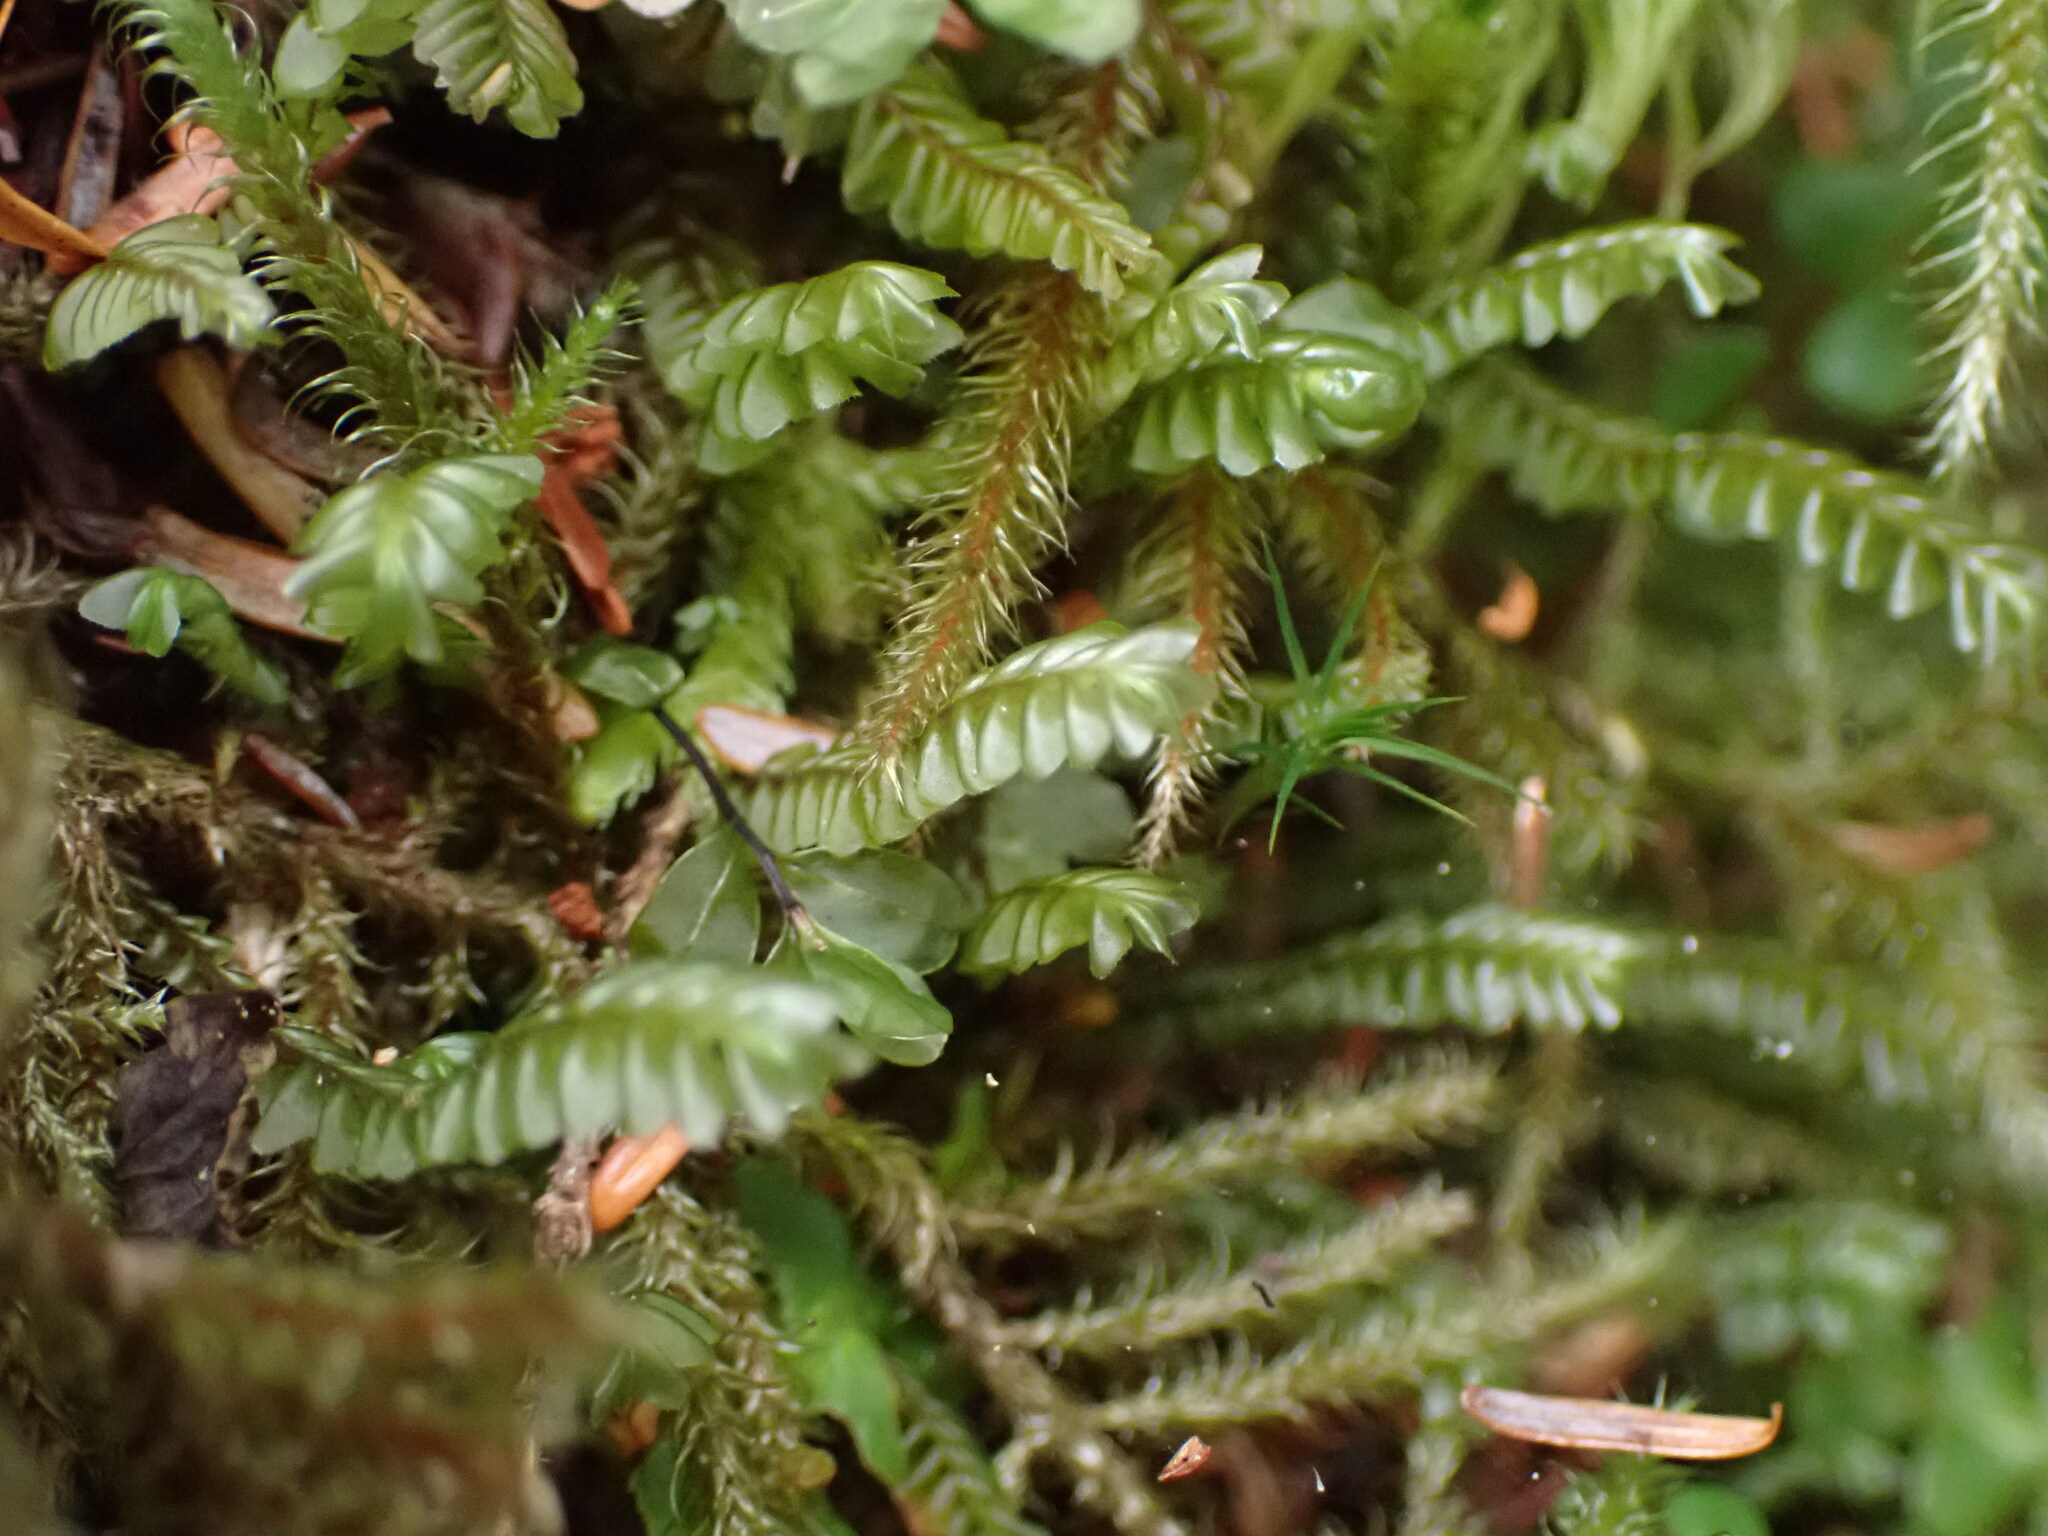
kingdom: Plantae
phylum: Marchantiophyta
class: Jungermanniopsida
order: Jungermanniales
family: Plagiochilaceae
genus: Plagiochila
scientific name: Plagiochila porelloides
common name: Lesser featherwort
